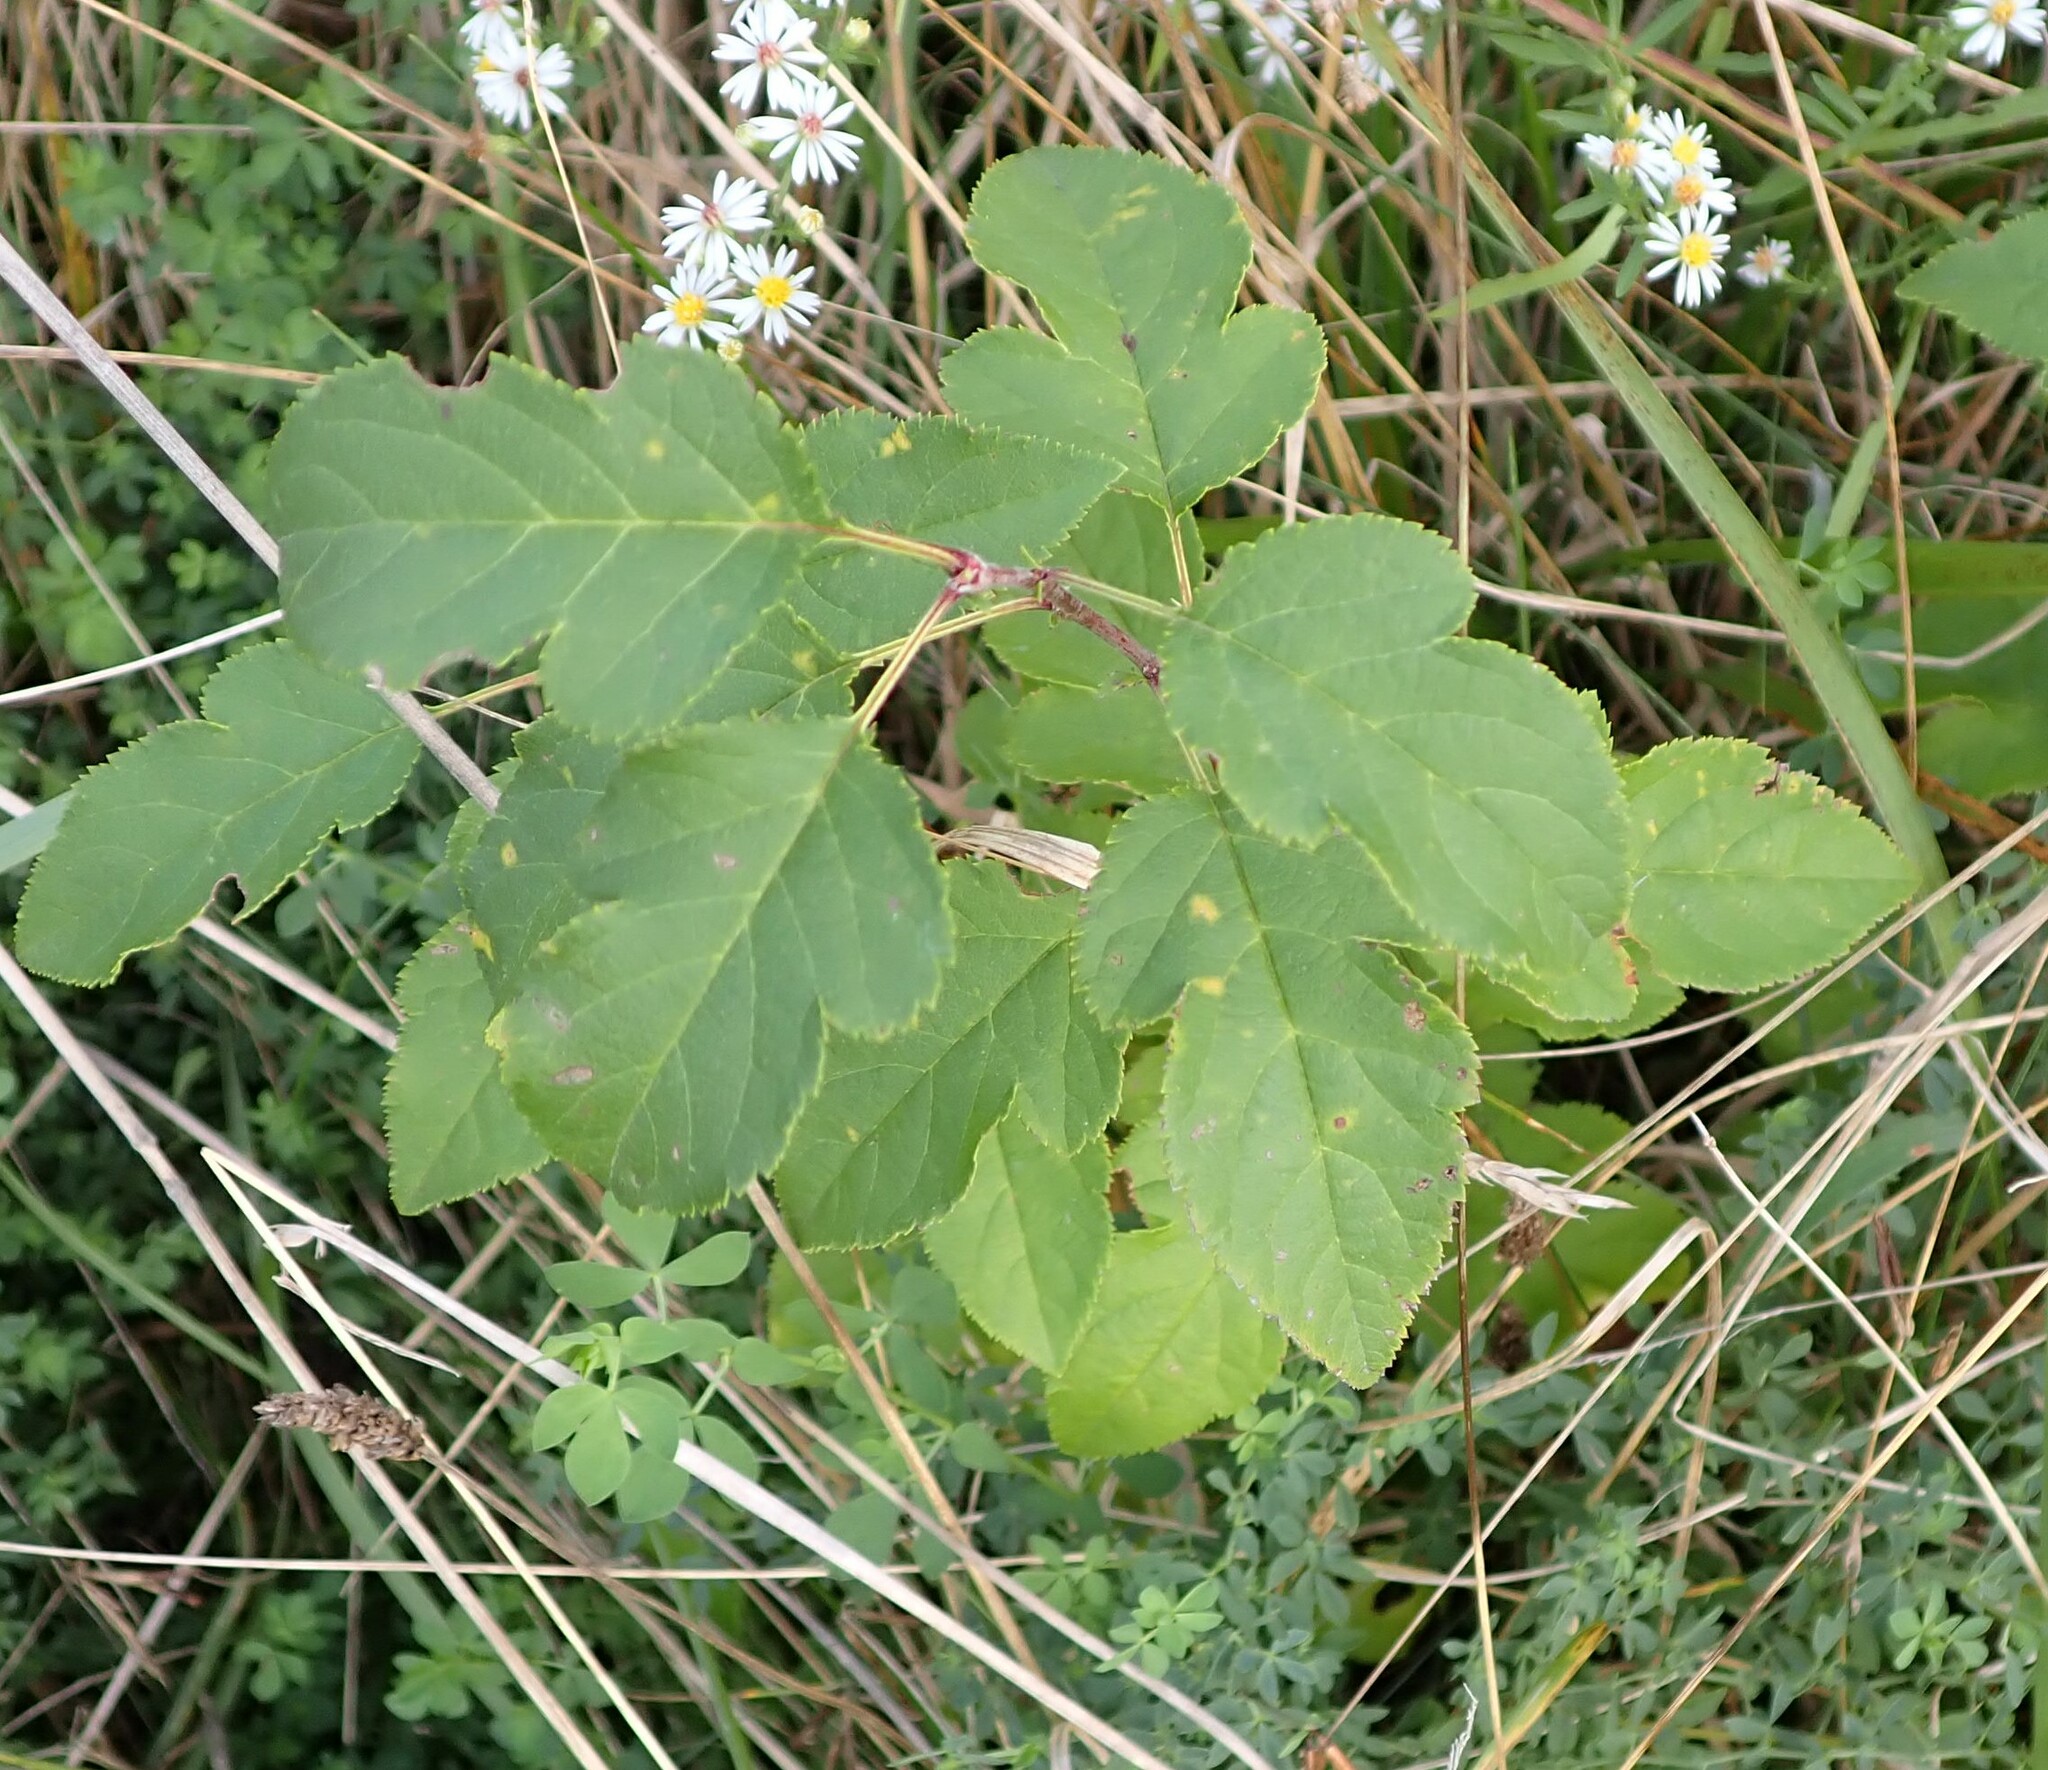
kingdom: Plantae
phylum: Tracheophyta
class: Magnoliopsida
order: Rosales
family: Rosaceae
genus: Malus
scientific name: Malus toringo
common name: Japanese crabapple
